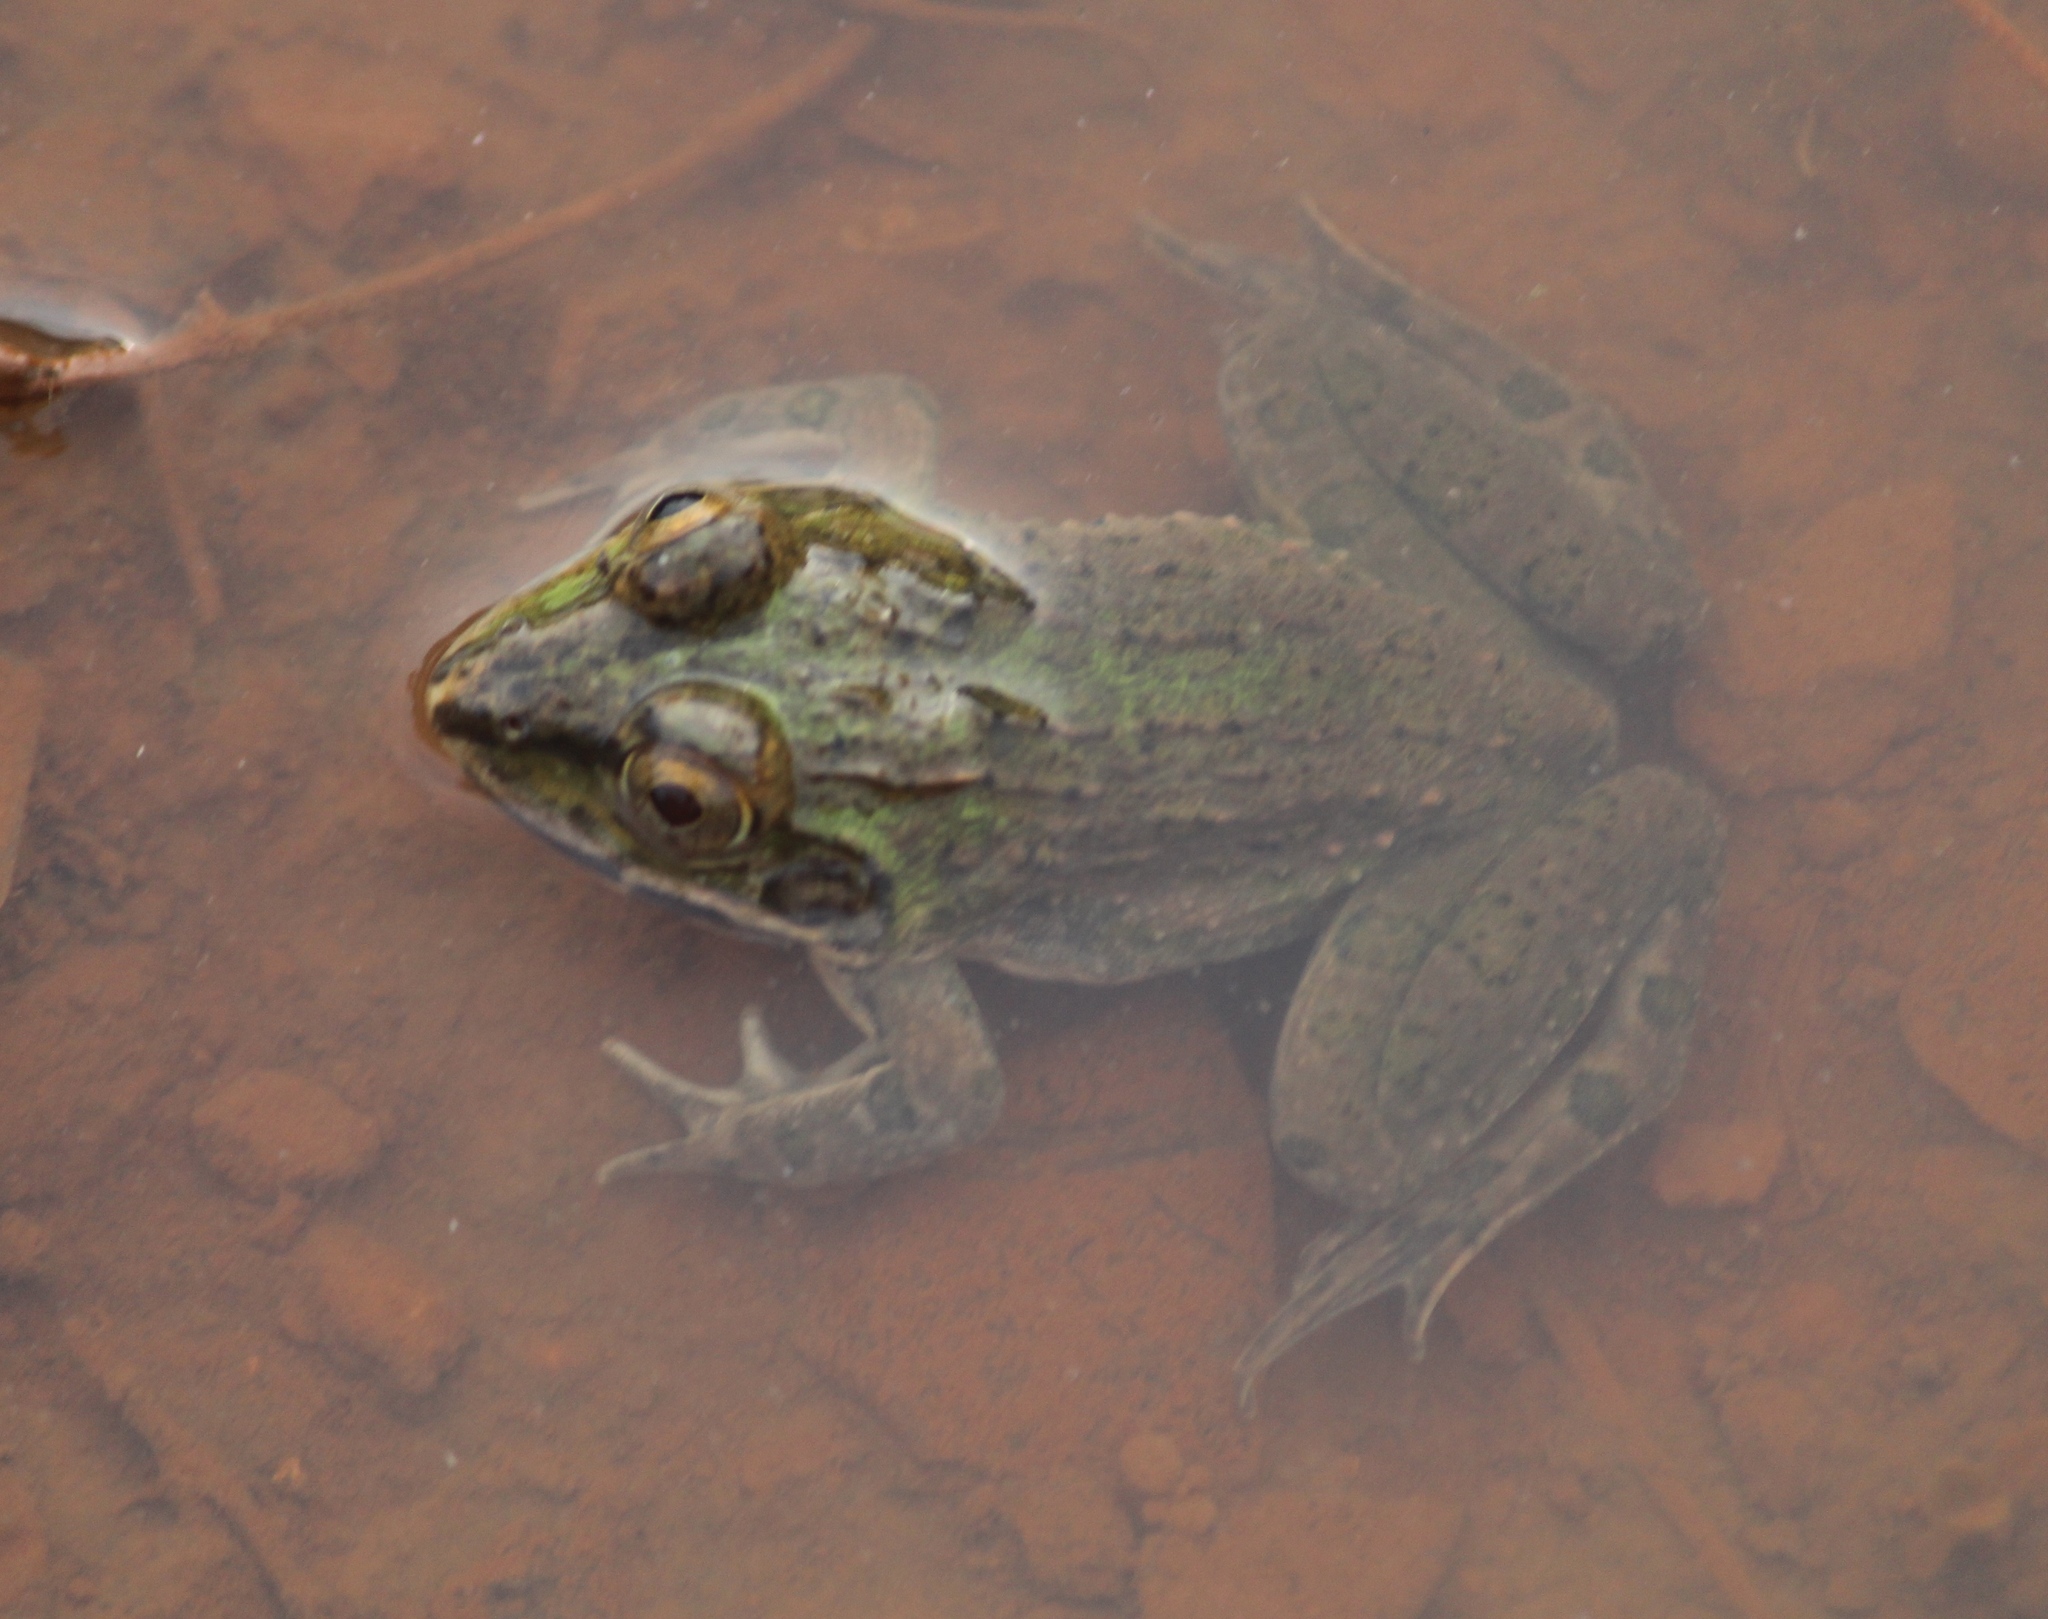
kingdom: Animalia
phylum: Chordata
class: Amphibia
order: Anura
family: Dicroglossidae
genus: Hoplobatrachus
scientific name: Hoplobatrachus tigerinus
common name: Indian bullfrog
